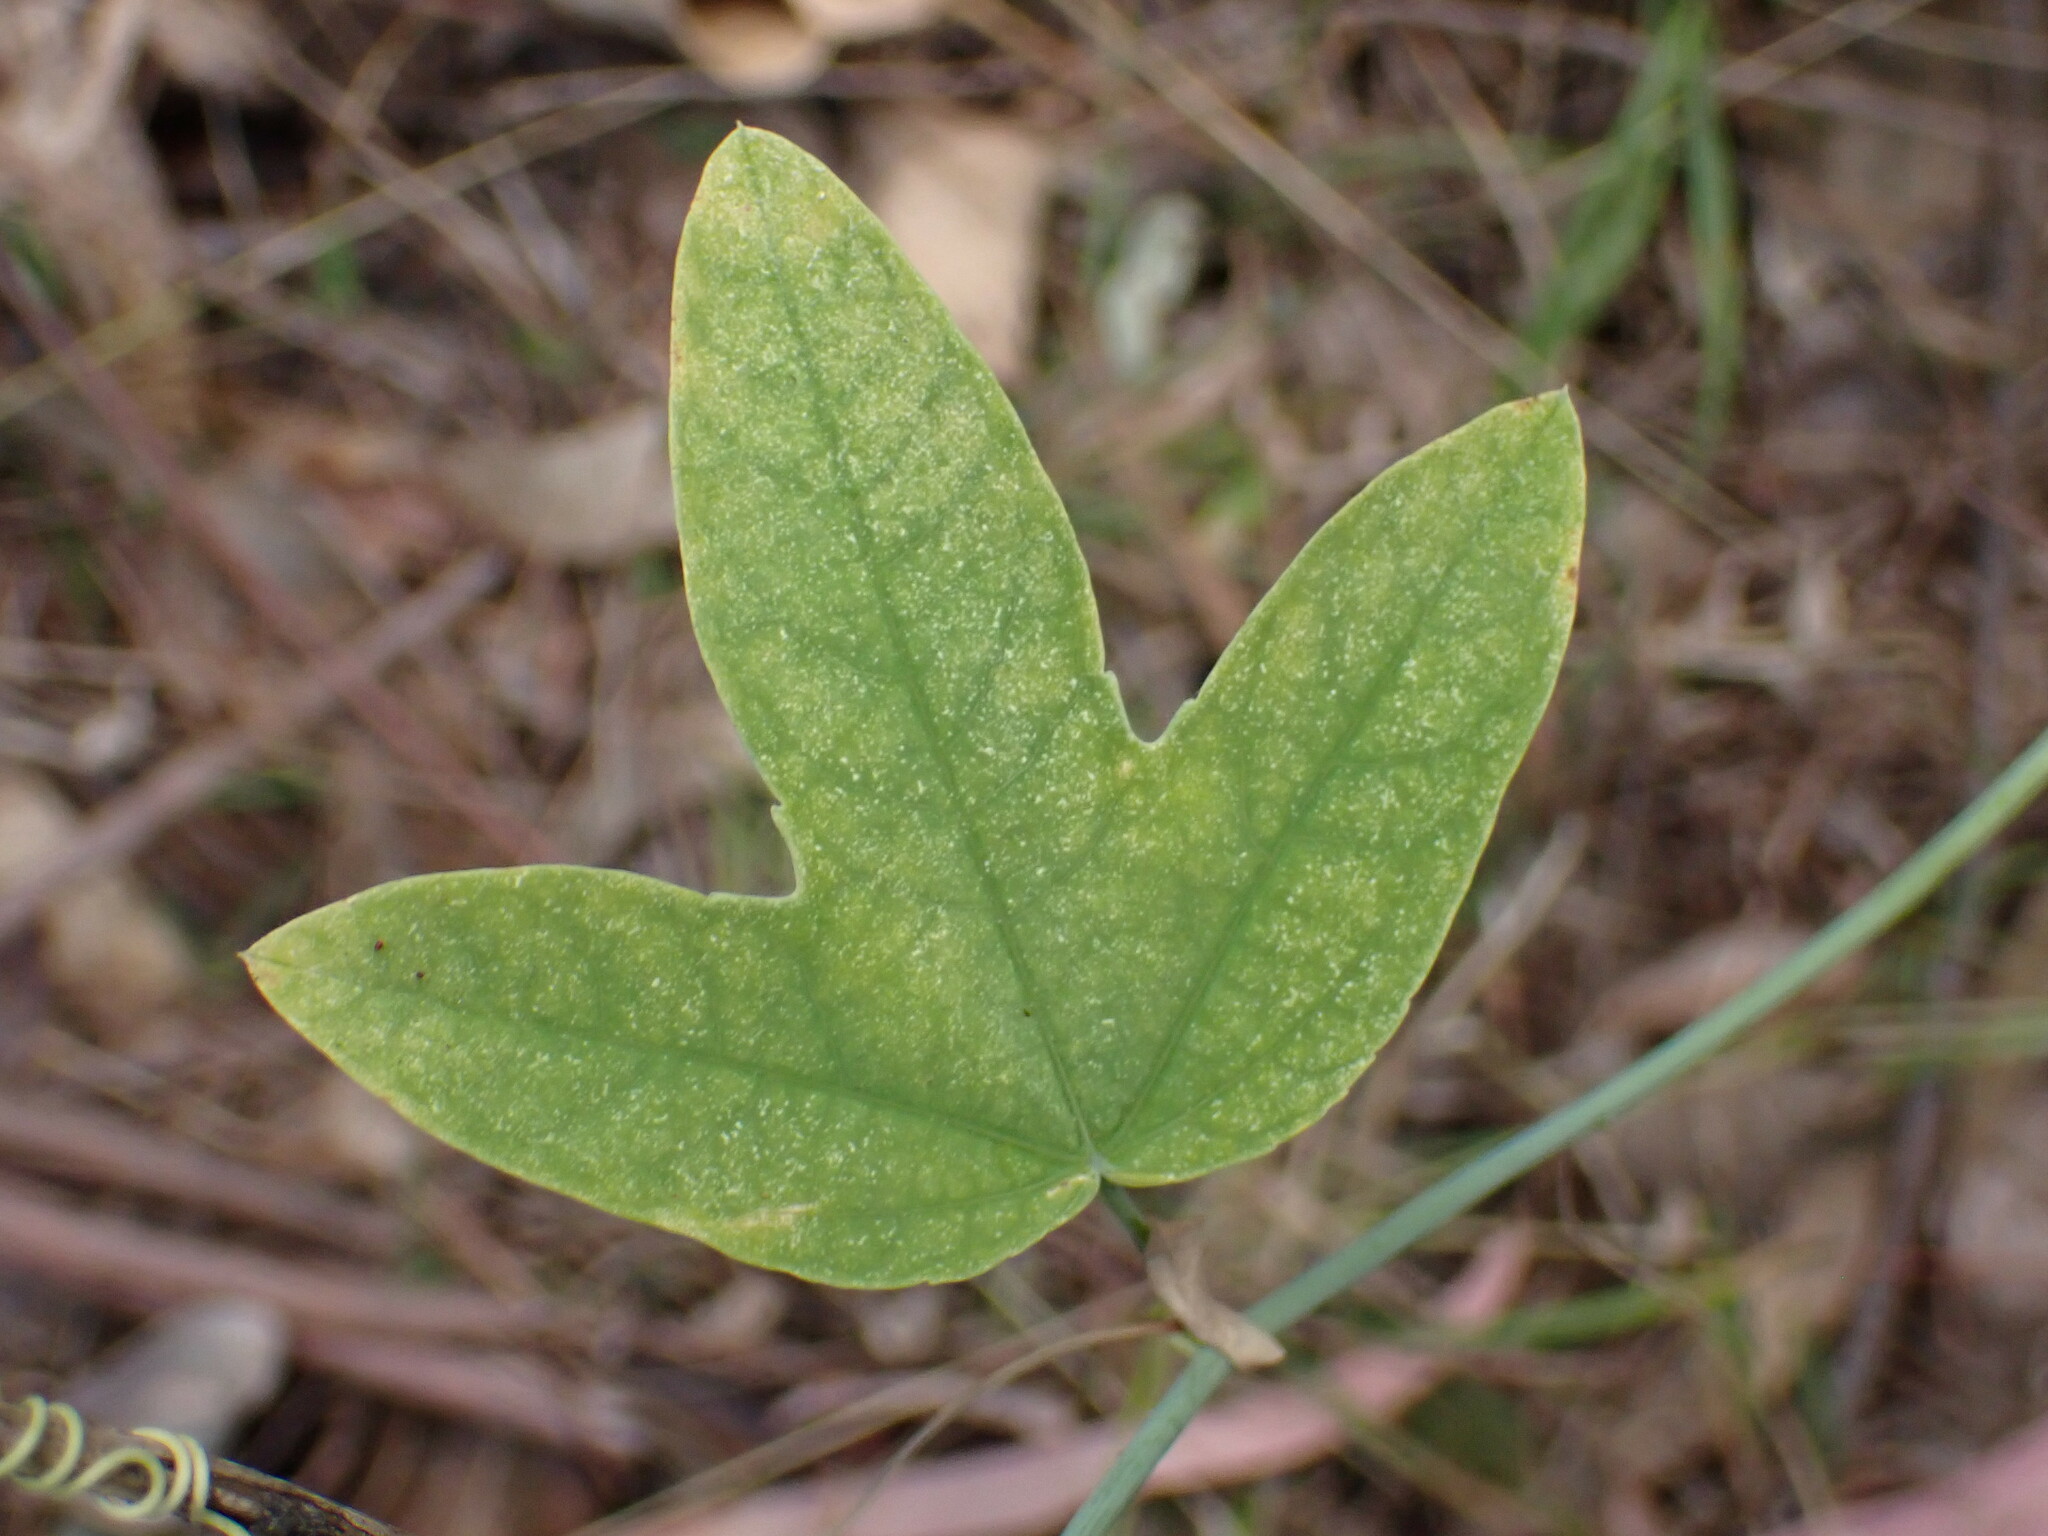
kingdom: Plantae
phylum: Tracheophyta
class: Magnoliopsida
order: Malpighiales
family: Passifloraceae
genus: Passiflora
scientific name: Passiflora subpeltata
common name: White passionflower
